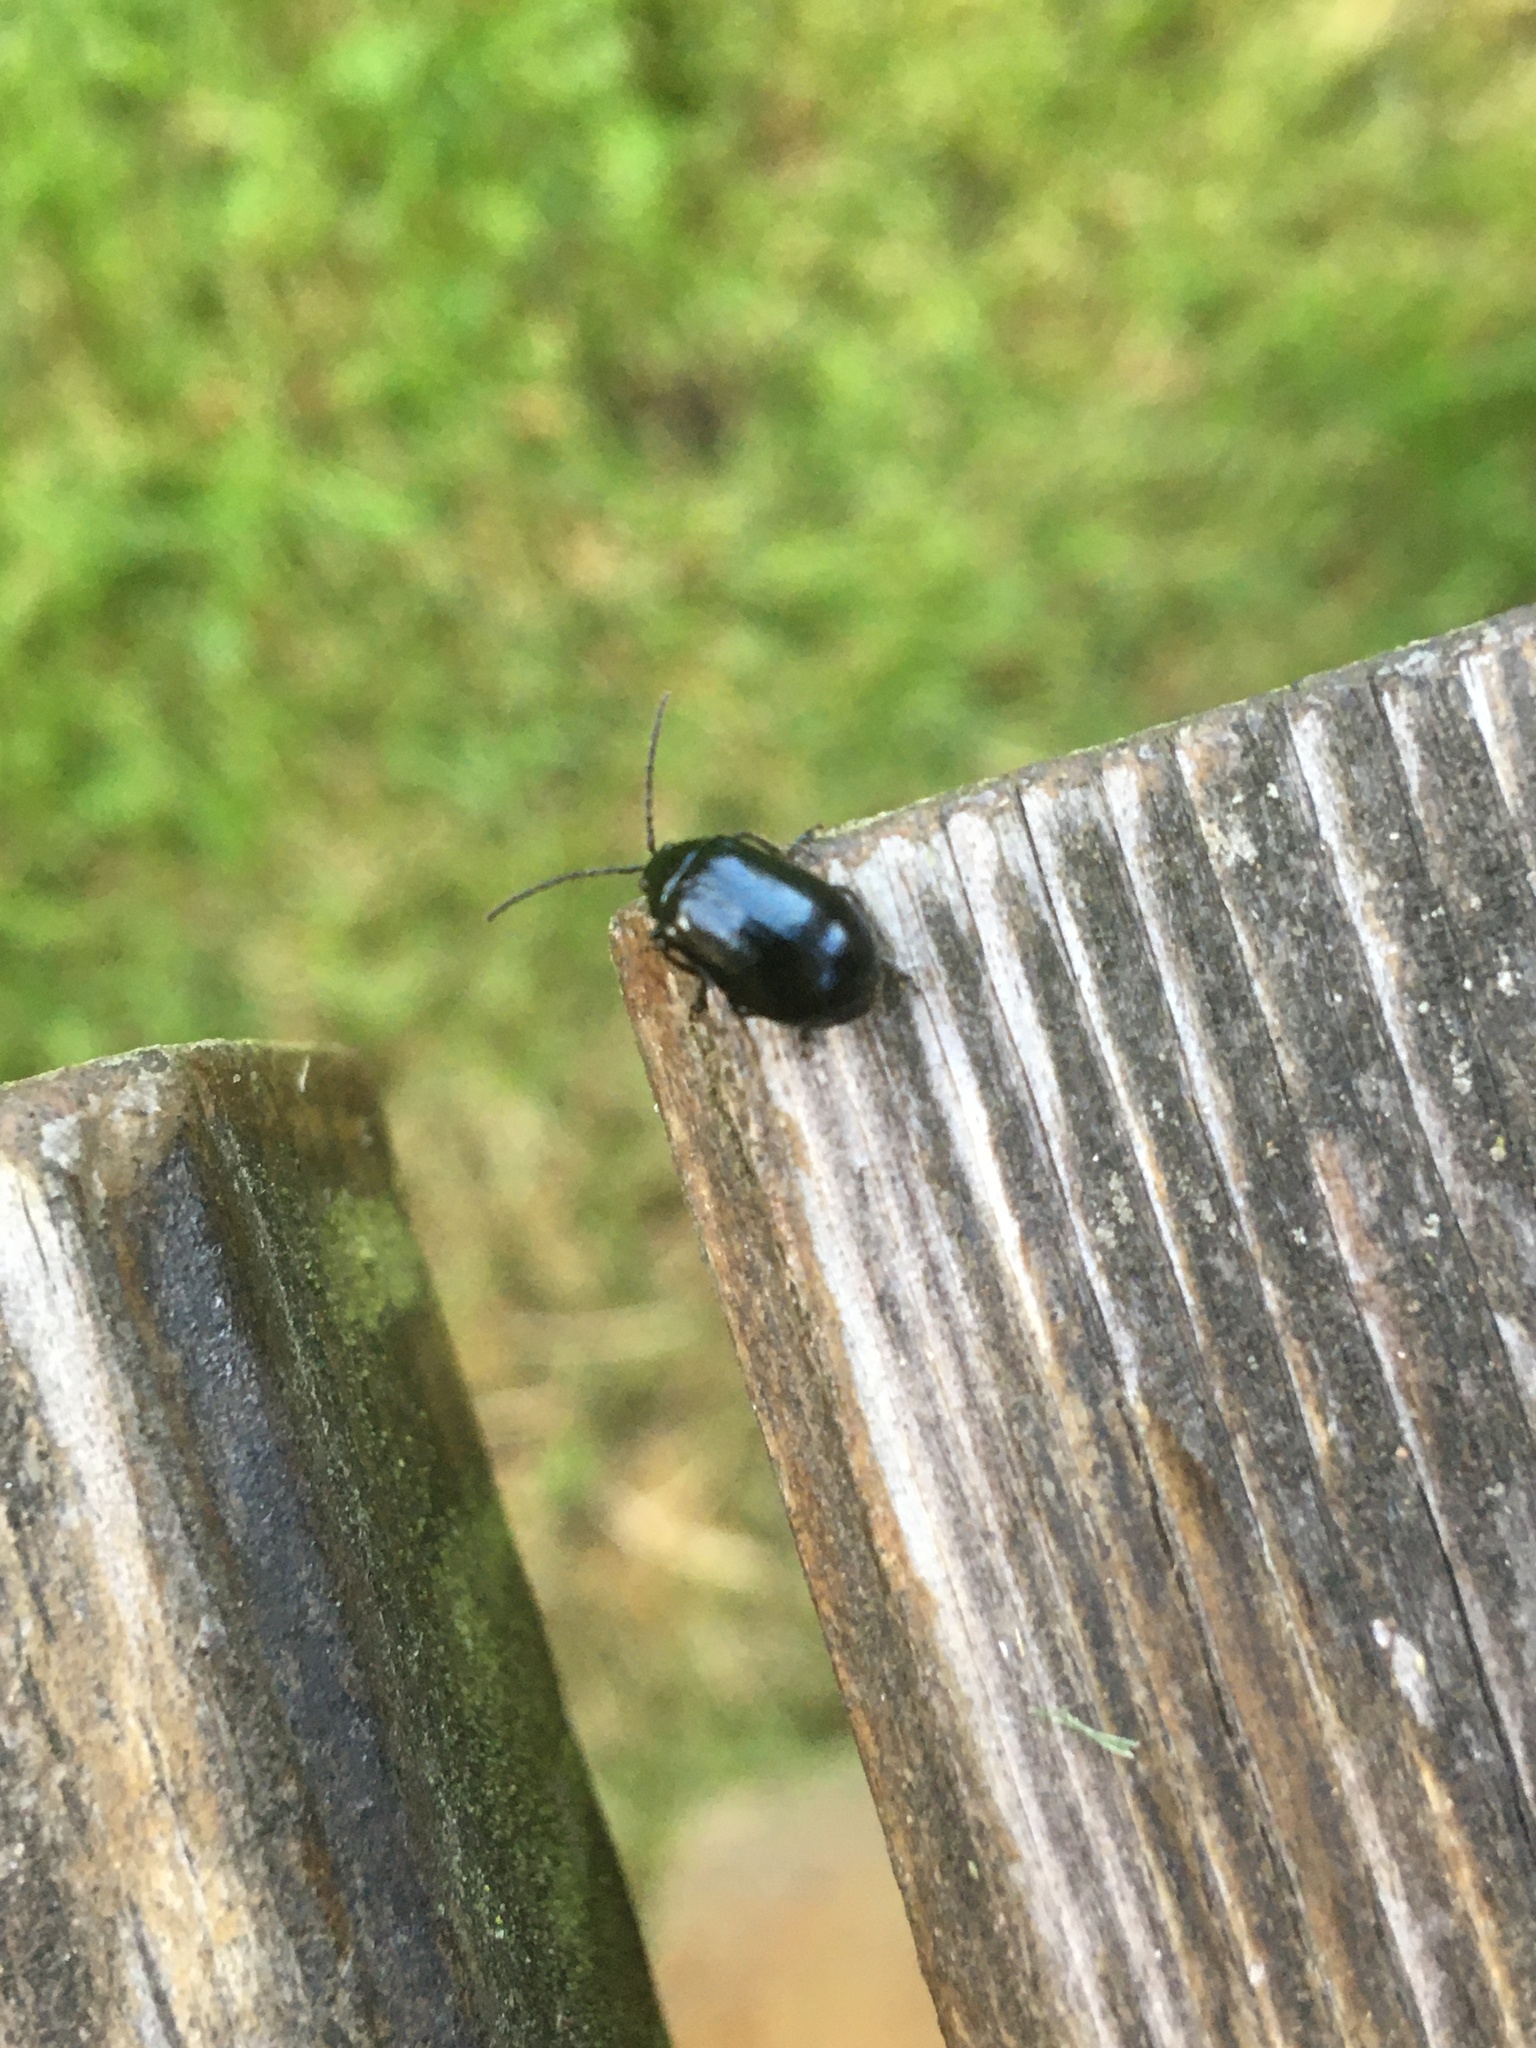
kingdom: Animalia
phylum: Arthropoda
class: Insecta
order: Coleoptera
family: Chrysomelidae
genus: Agelastica
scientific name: Agelastica alni
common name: Alder leaf beetle
